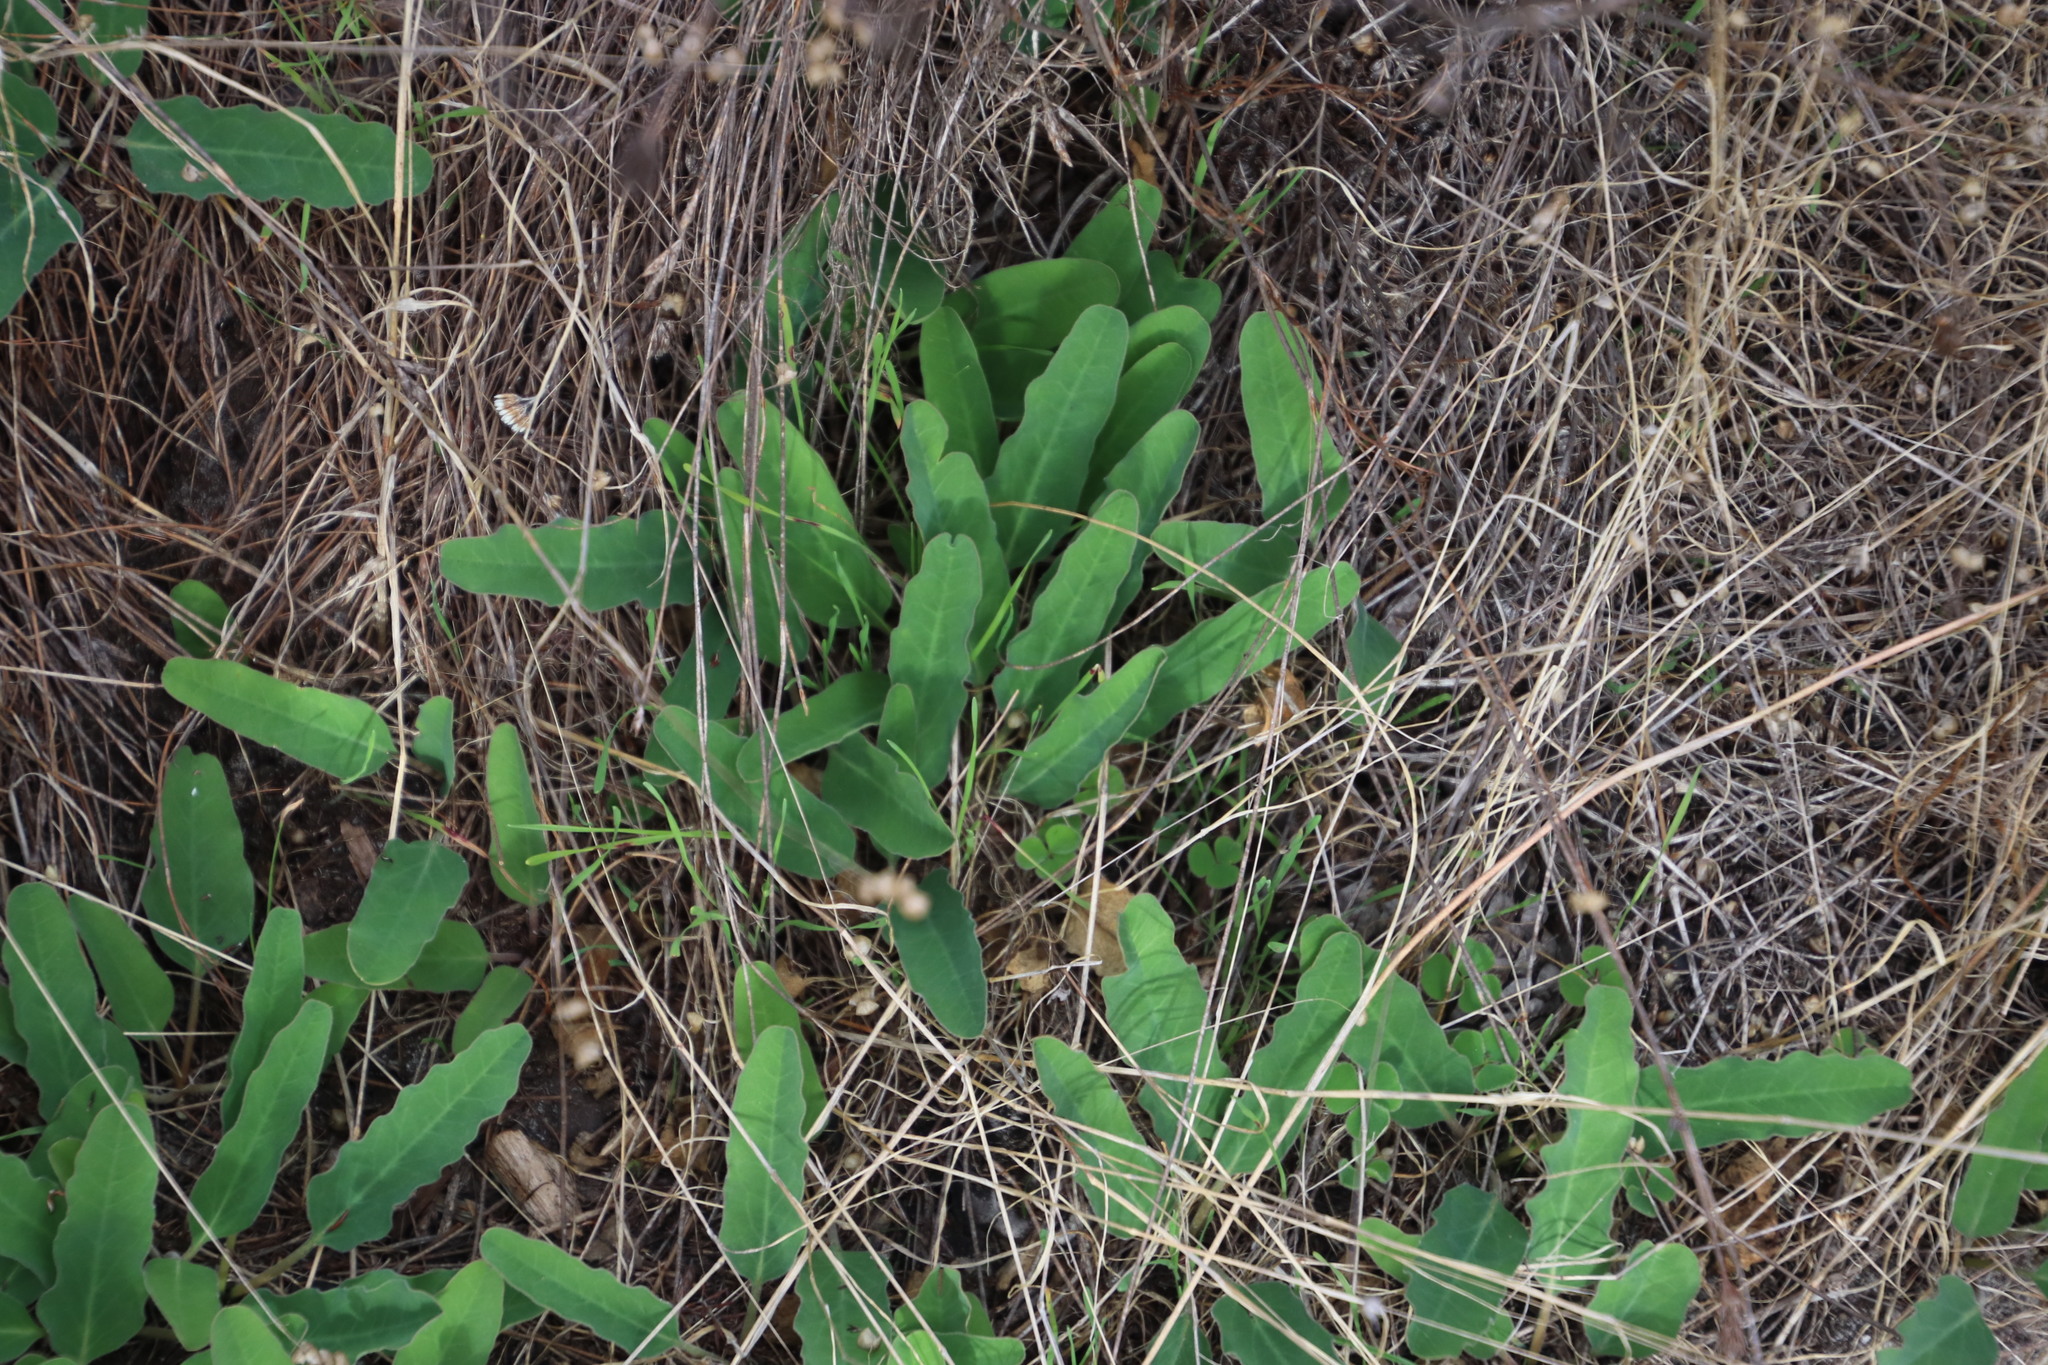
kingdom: Plantae
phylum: Tracheophyta
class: Magnoliopsida
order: Malpighiales
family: Euphorbiaceae
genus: Euphorbia
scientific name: Euphorbia tuberosa
